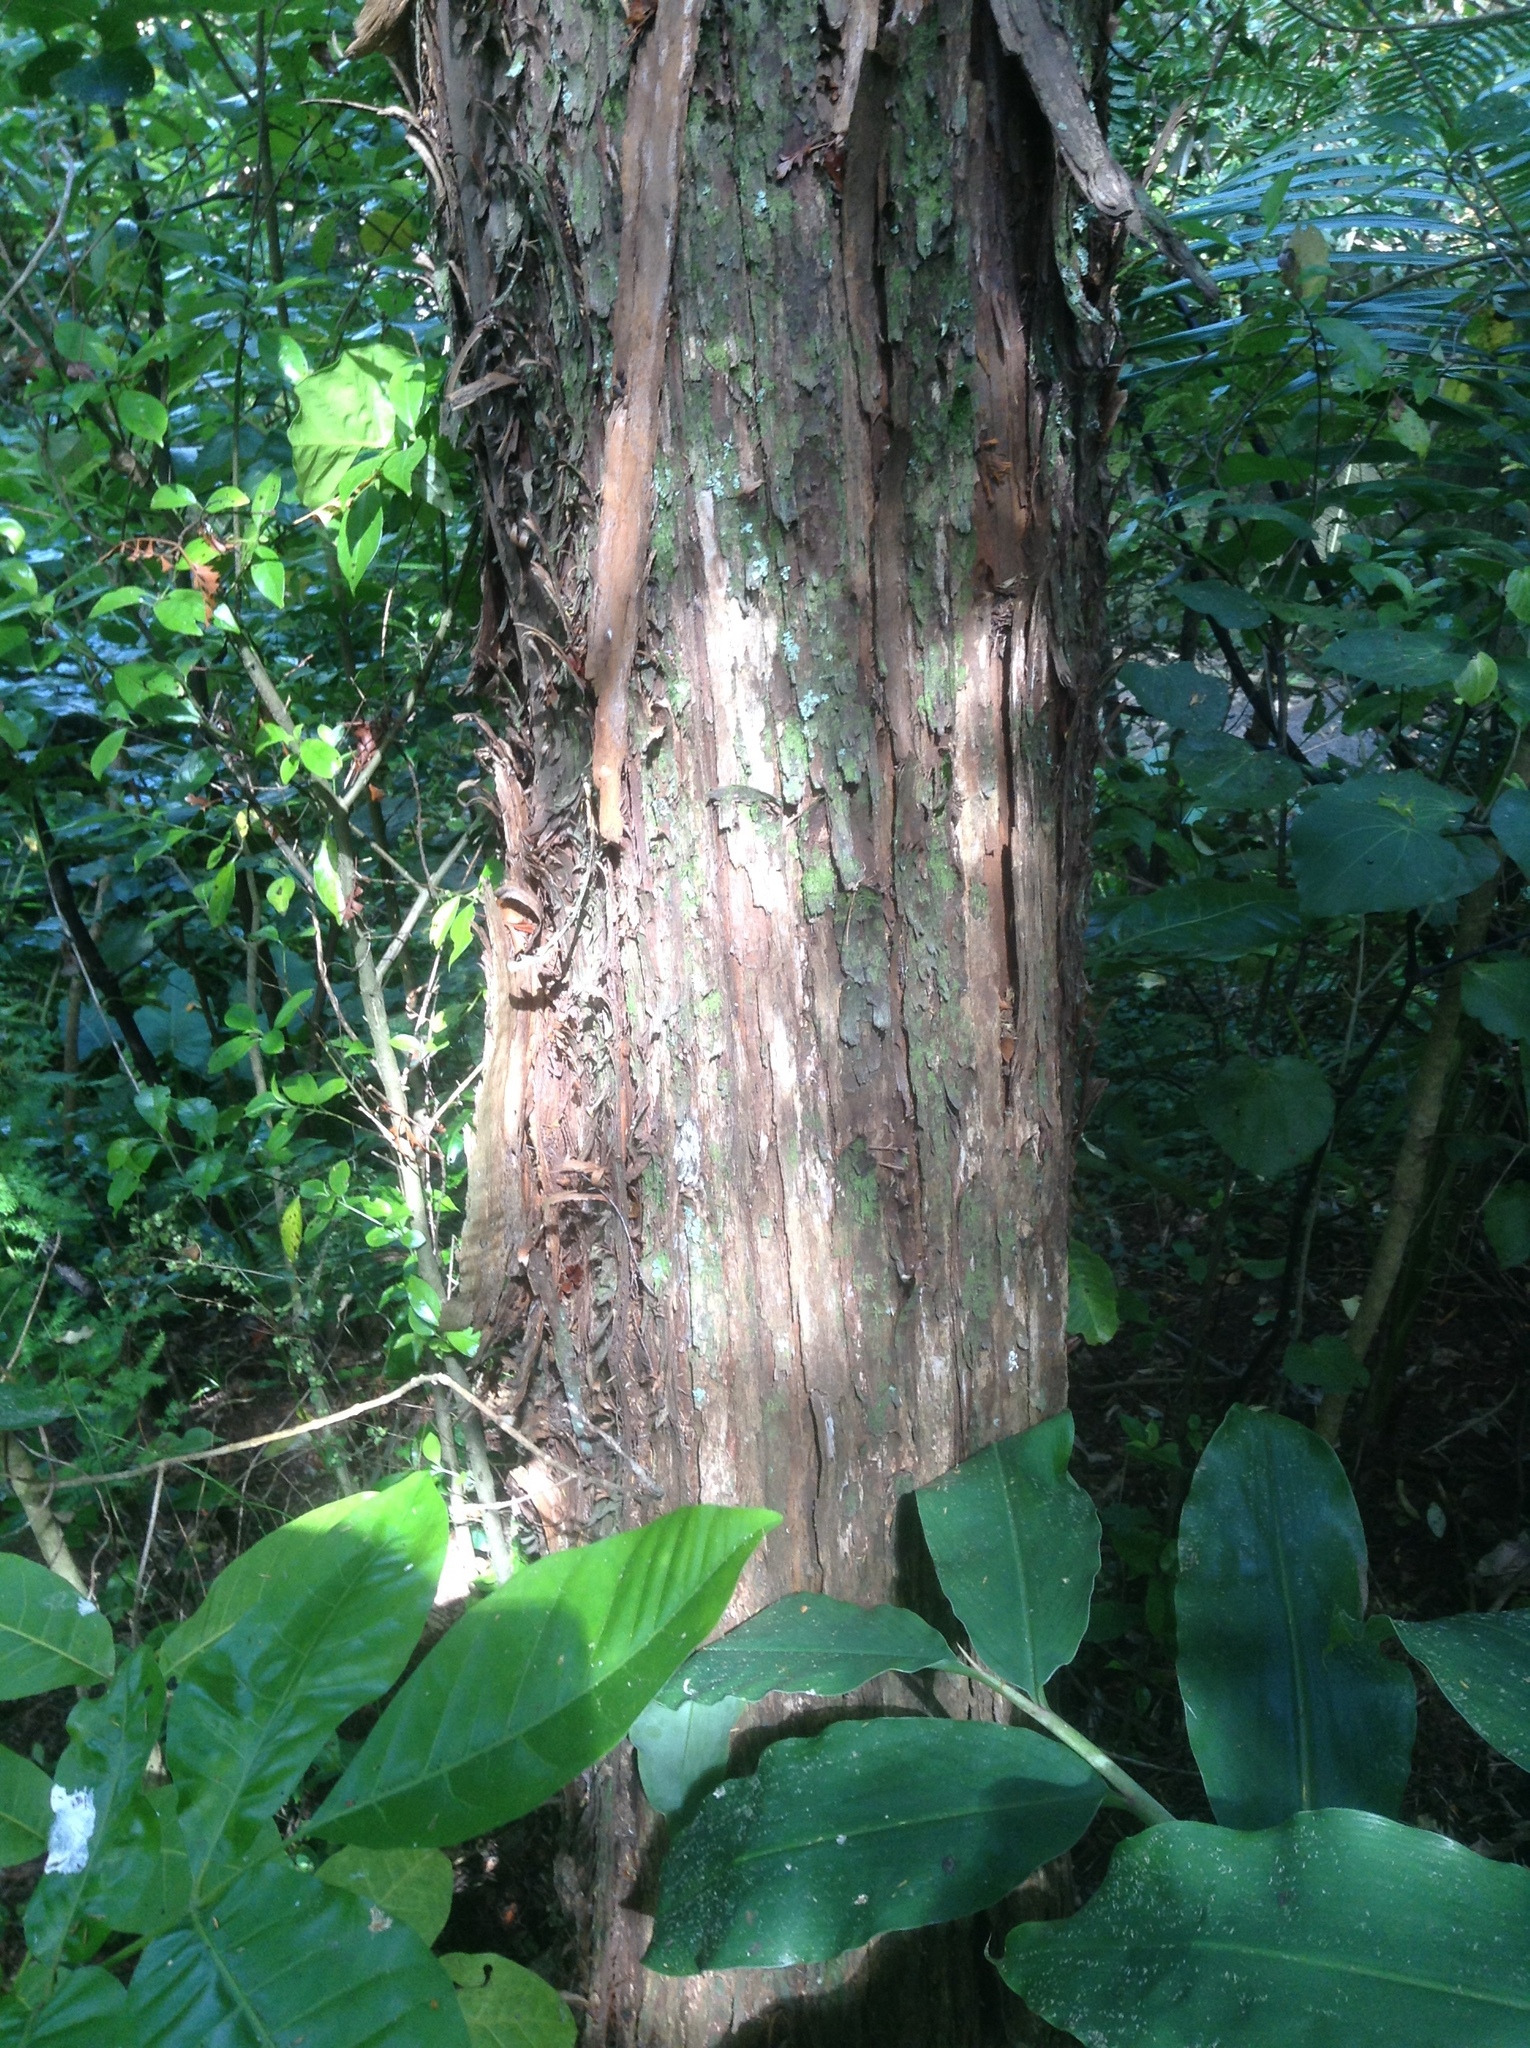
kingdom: Plantae
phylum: Tracheophyta
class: Magnoliopsida
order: Myrtales
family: Myrtaceae
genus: Kunzea
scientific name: Kunzea robusta
